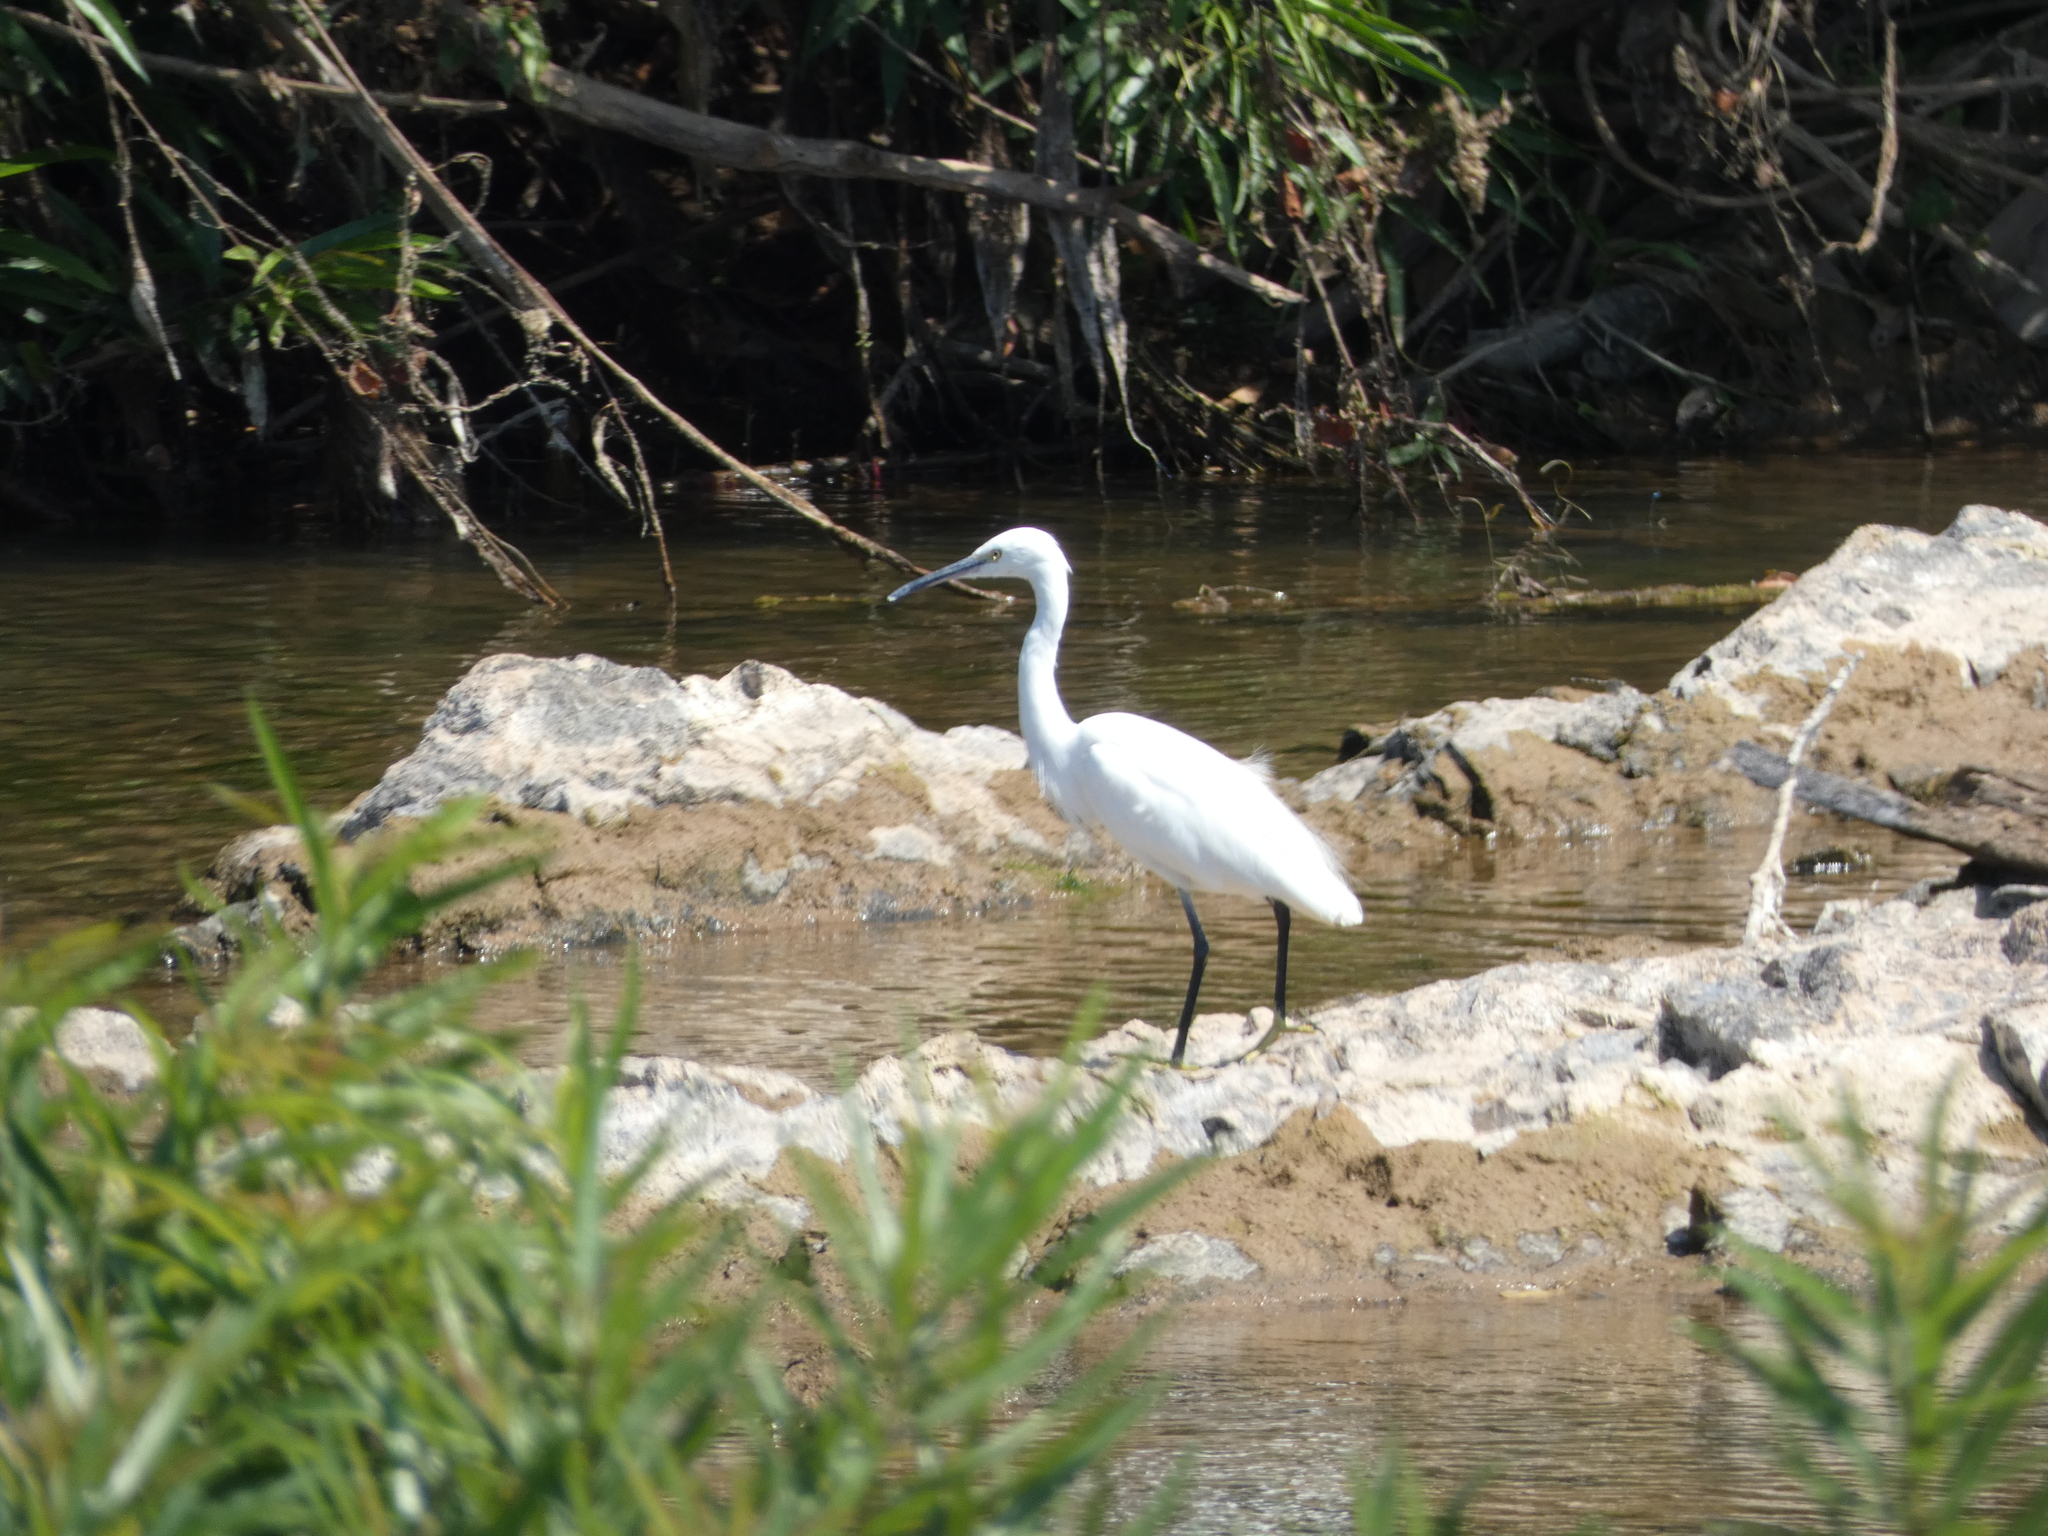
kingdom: Animalia
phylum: Chordata
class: Aves
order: Pelecaniformes
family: Ardeidae
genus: Egretta
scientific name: Egretta garzetta
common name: Little egret
